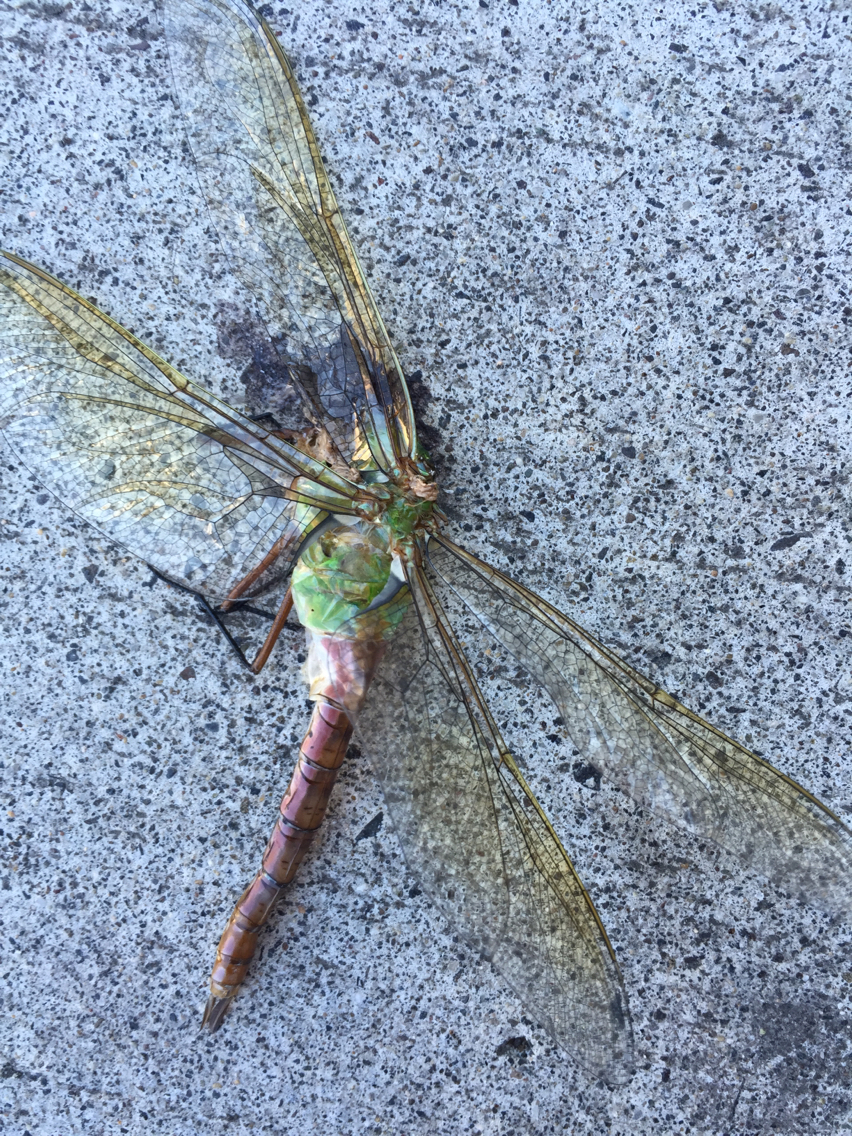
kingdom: Animalia
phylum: Arthropoda
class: Insecta
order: Odonata
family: Aeshnidae
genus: Anax
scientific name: Anax junius
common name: Common green darner
